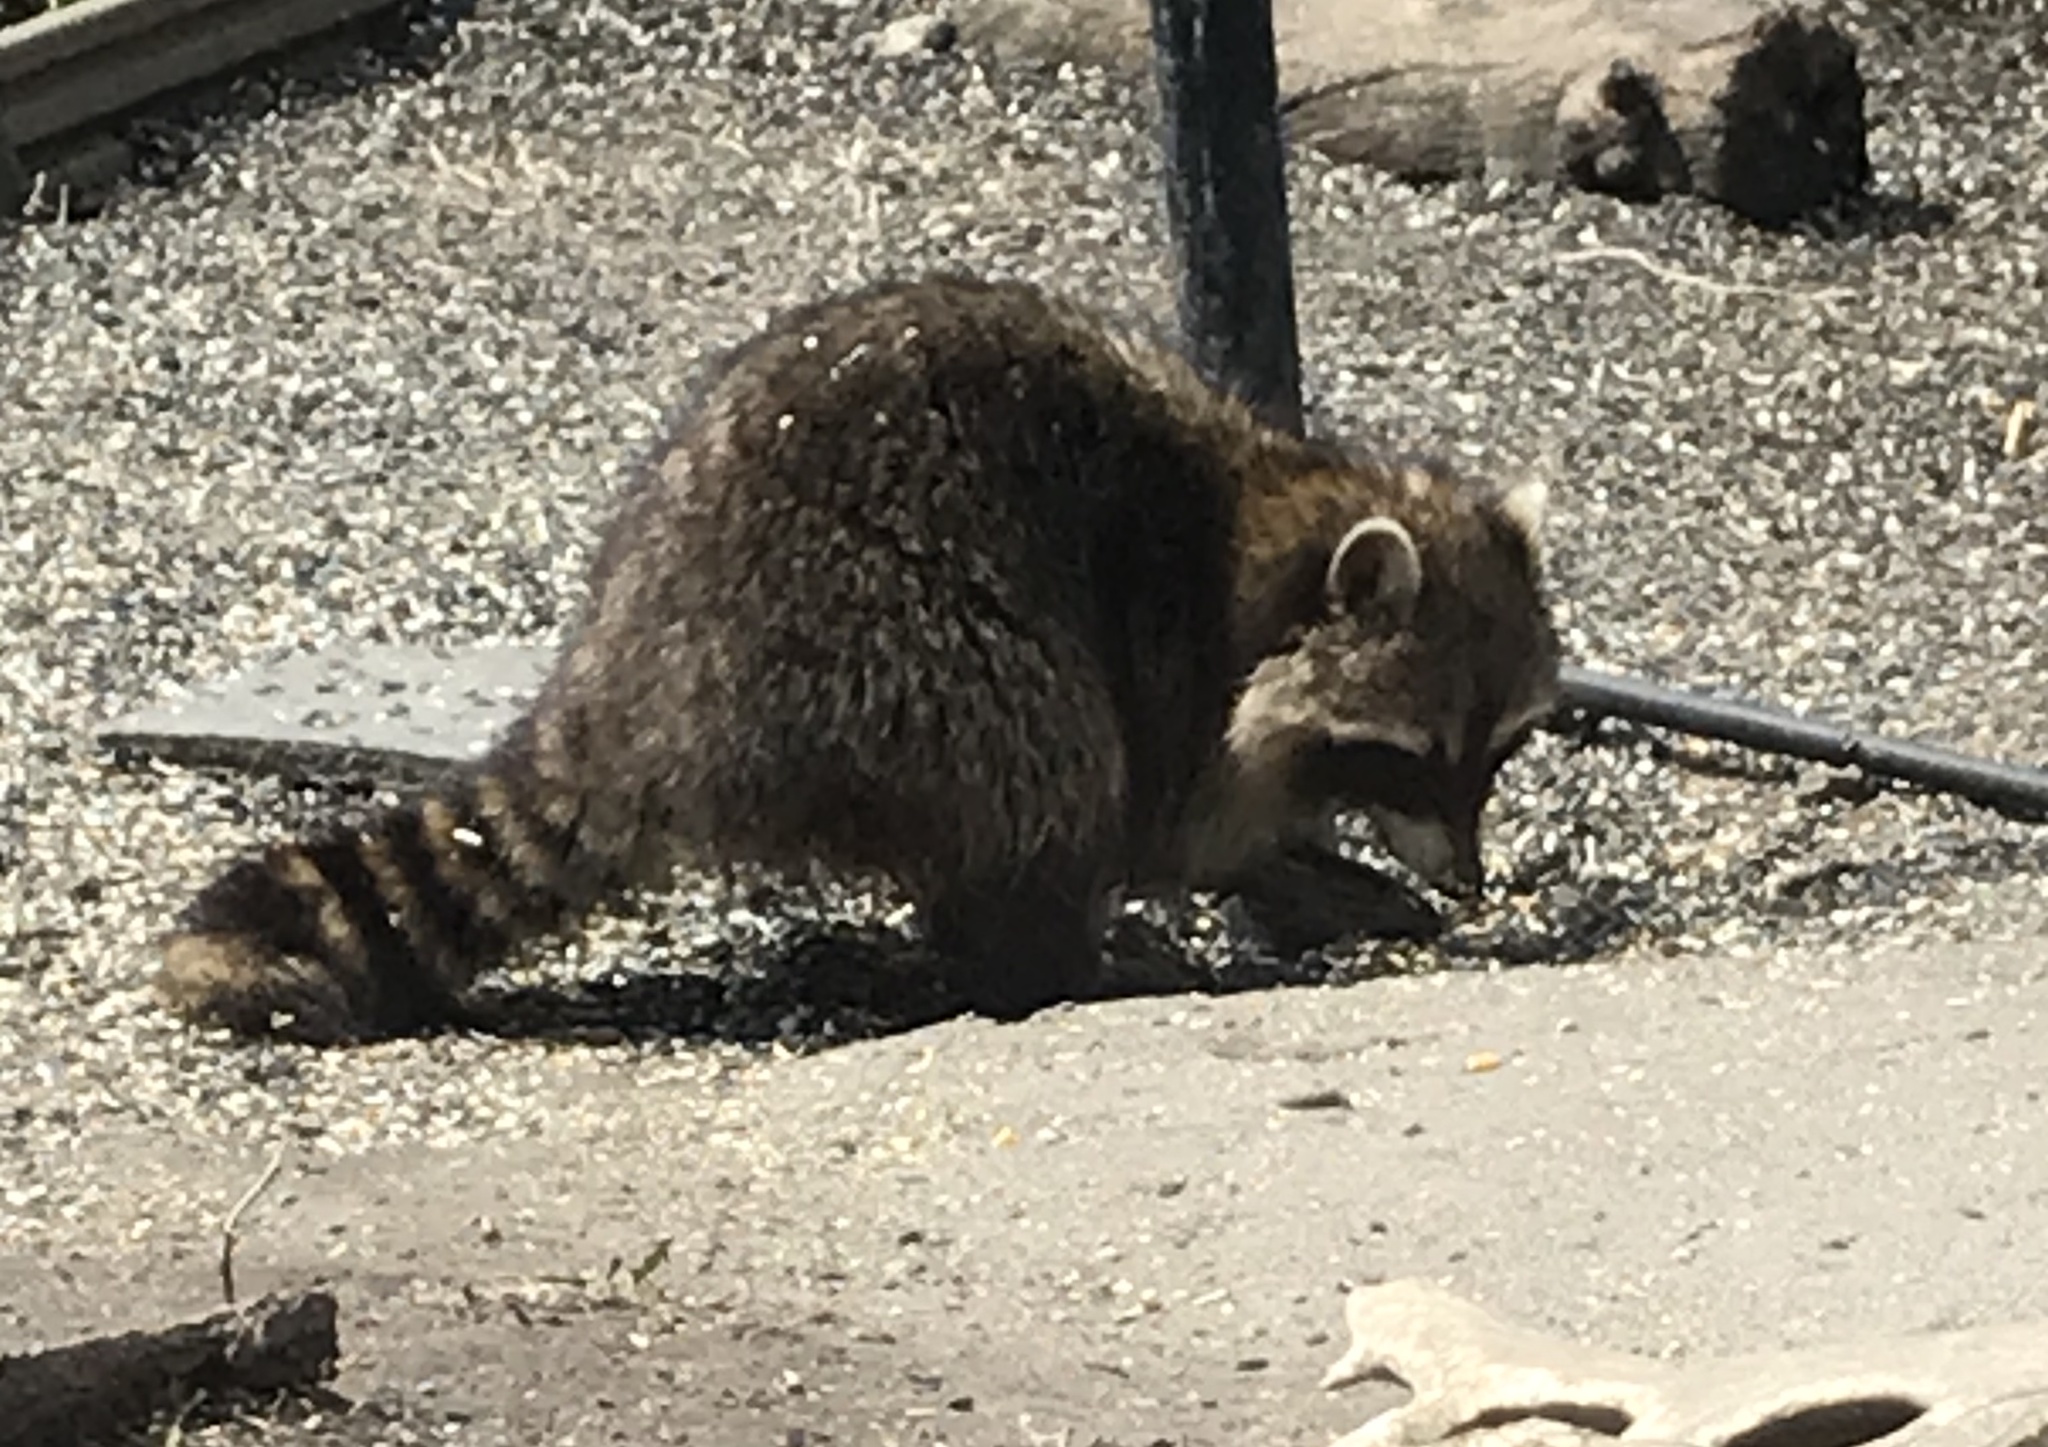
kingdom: Animalia
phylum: Chordata
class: Mammalia
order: Carnivora
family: Procyonidae
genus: Procyon
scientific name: Procyon lotor
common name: Raccoon
